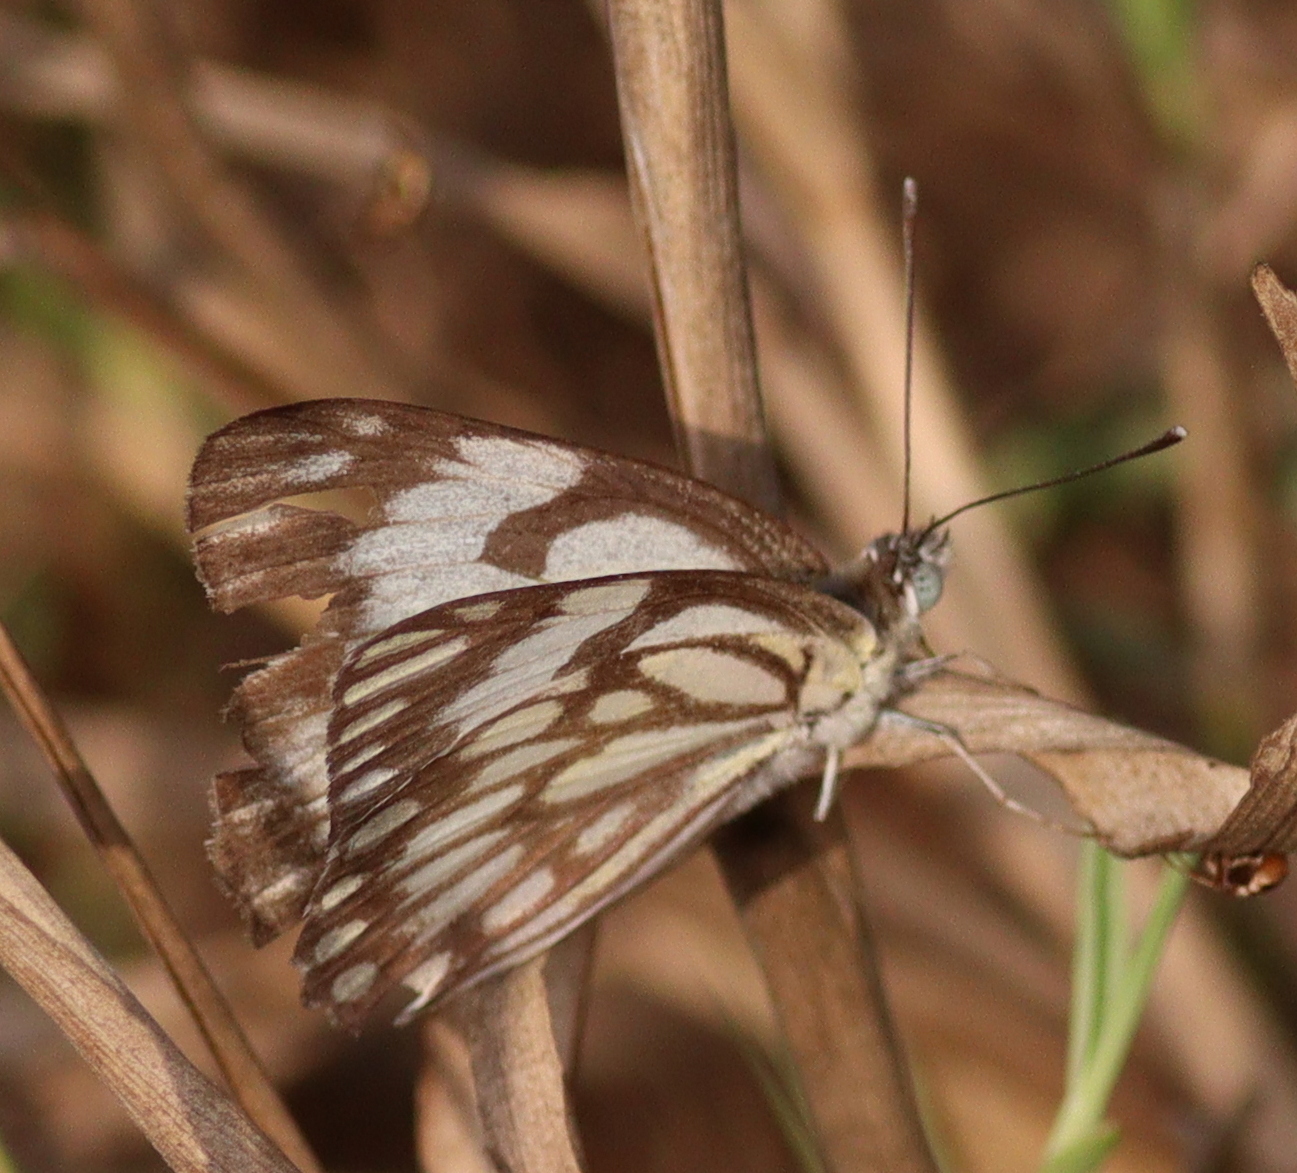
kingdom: Animalia
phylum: Arthropoda
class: Insecta
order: Lepidoptera
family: Pieridae
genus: Belenois
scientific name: Belenois aurota
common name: Brown-veined white
